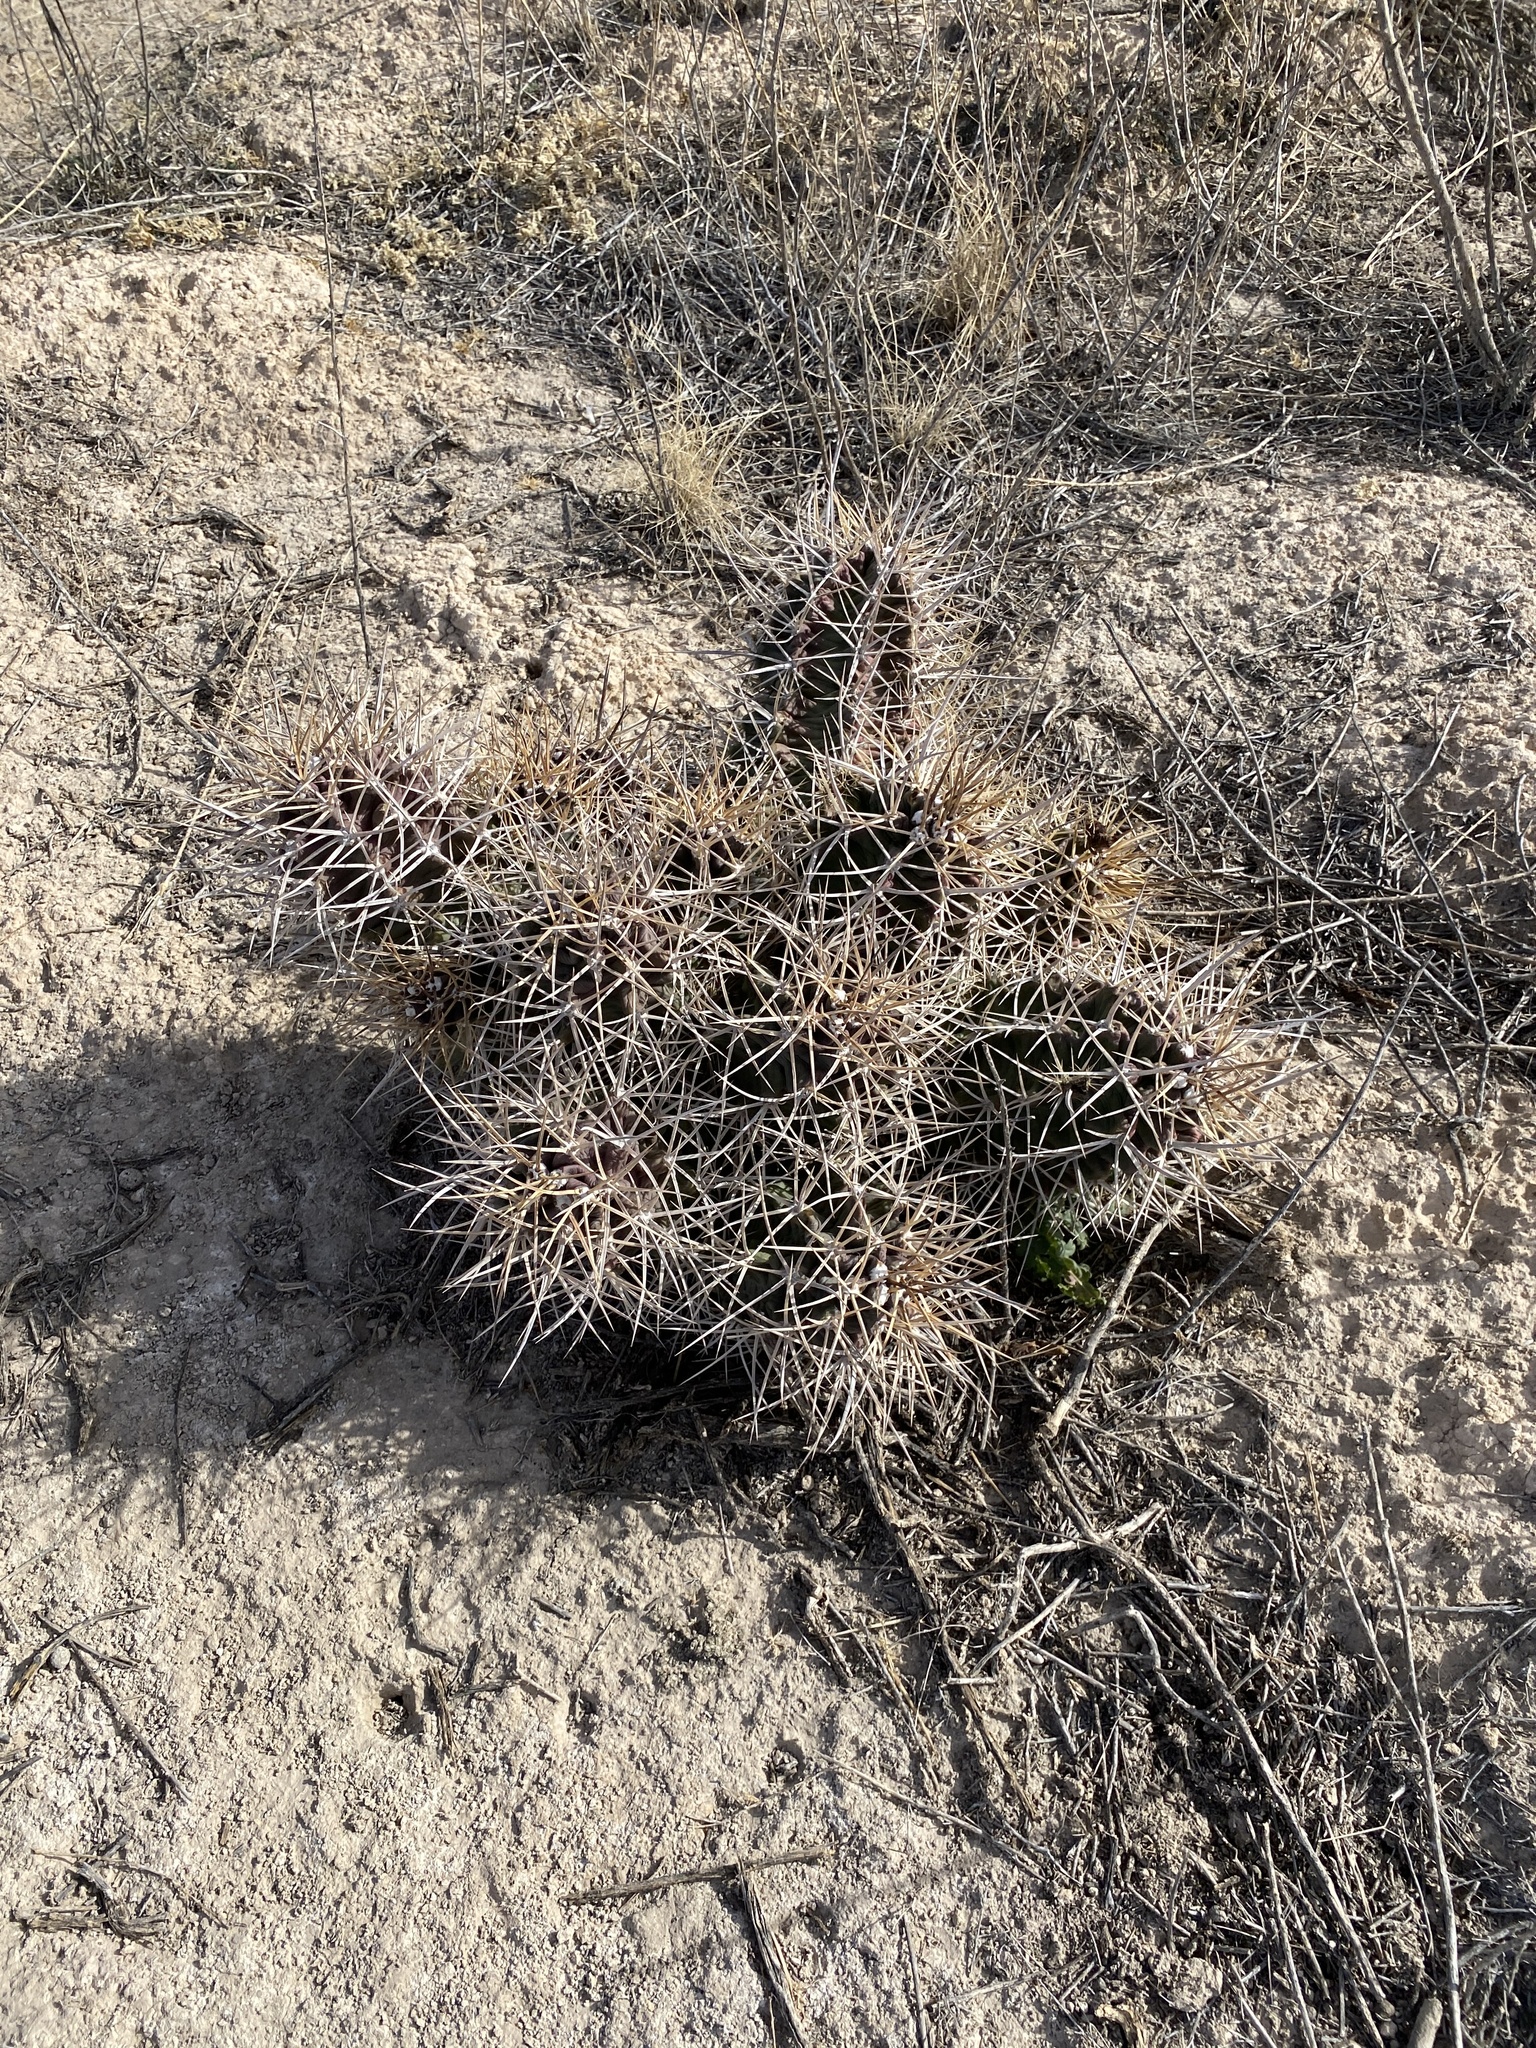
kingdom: Plantae
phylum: Tracheophyta
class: Magnoliopsida
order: Caryophyllales
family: Cactaceae
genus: Echinocereus
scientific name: Echinocereus triglochidiatus
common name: Claretcup hedgehog
